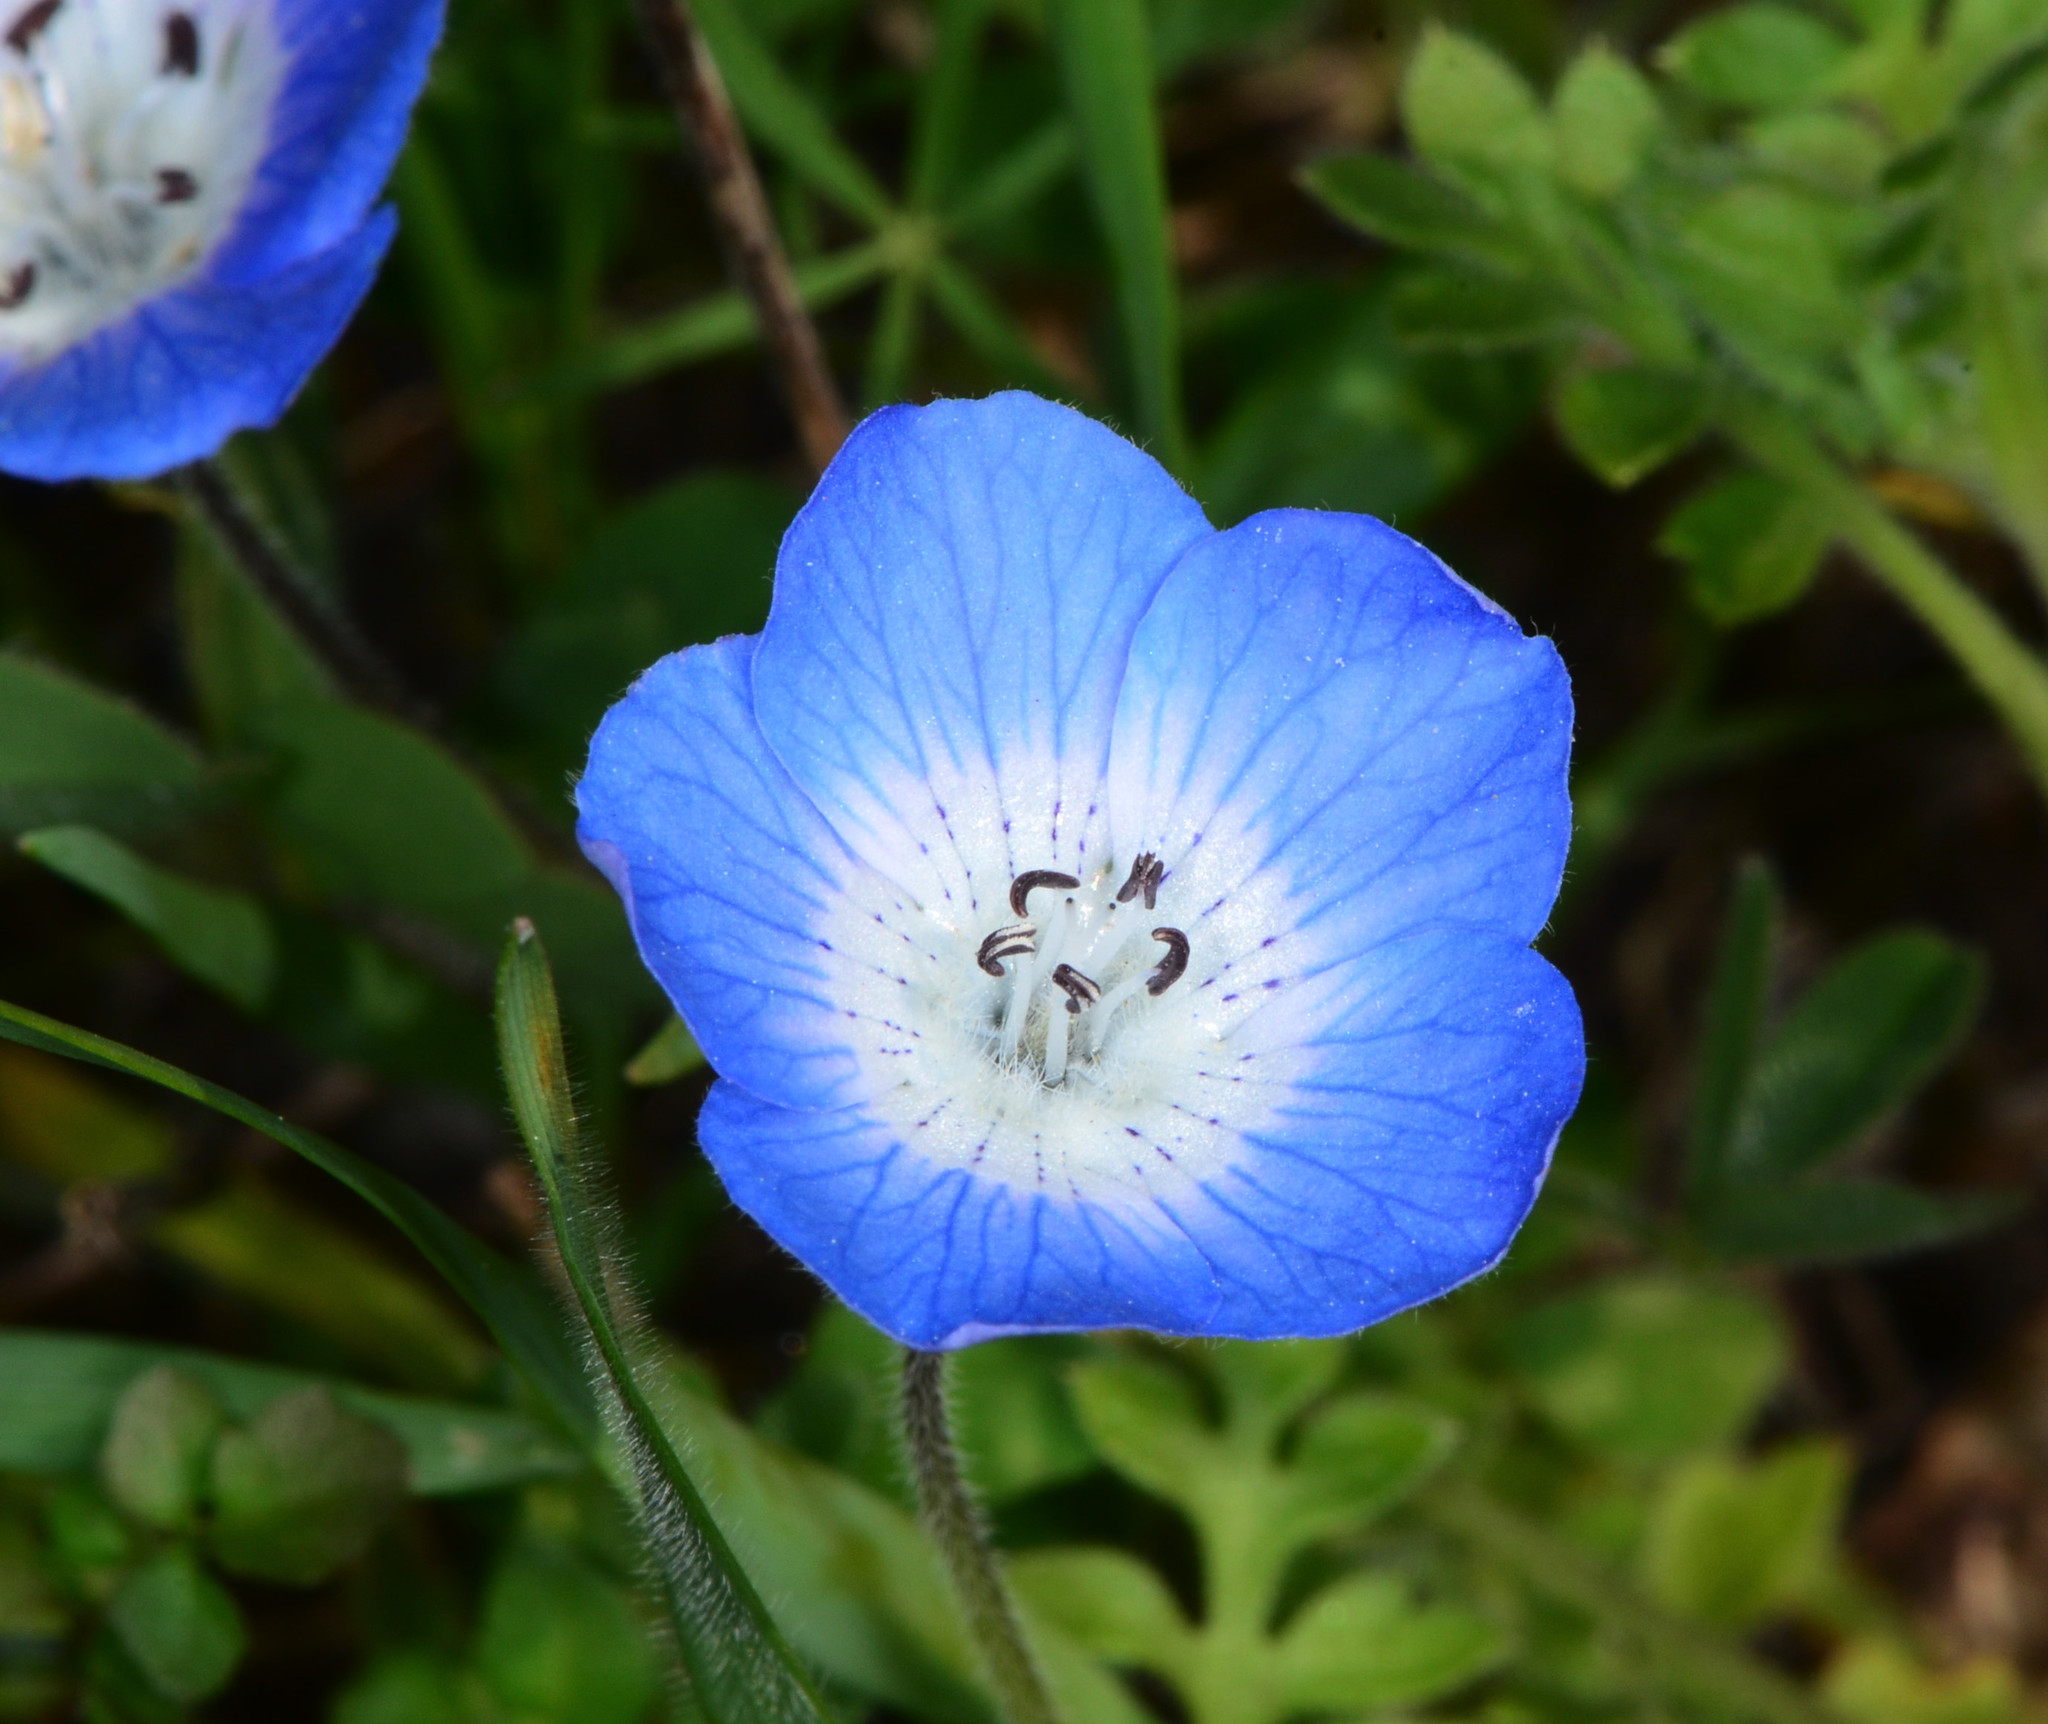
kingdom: Plantae
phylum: Tracheophyta
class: Magnoliopsida
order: Boraginales
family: Hydrophyllaceae
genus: Nemophila
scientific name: Nemophila menziesii
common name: Baby's-blue-eyes
